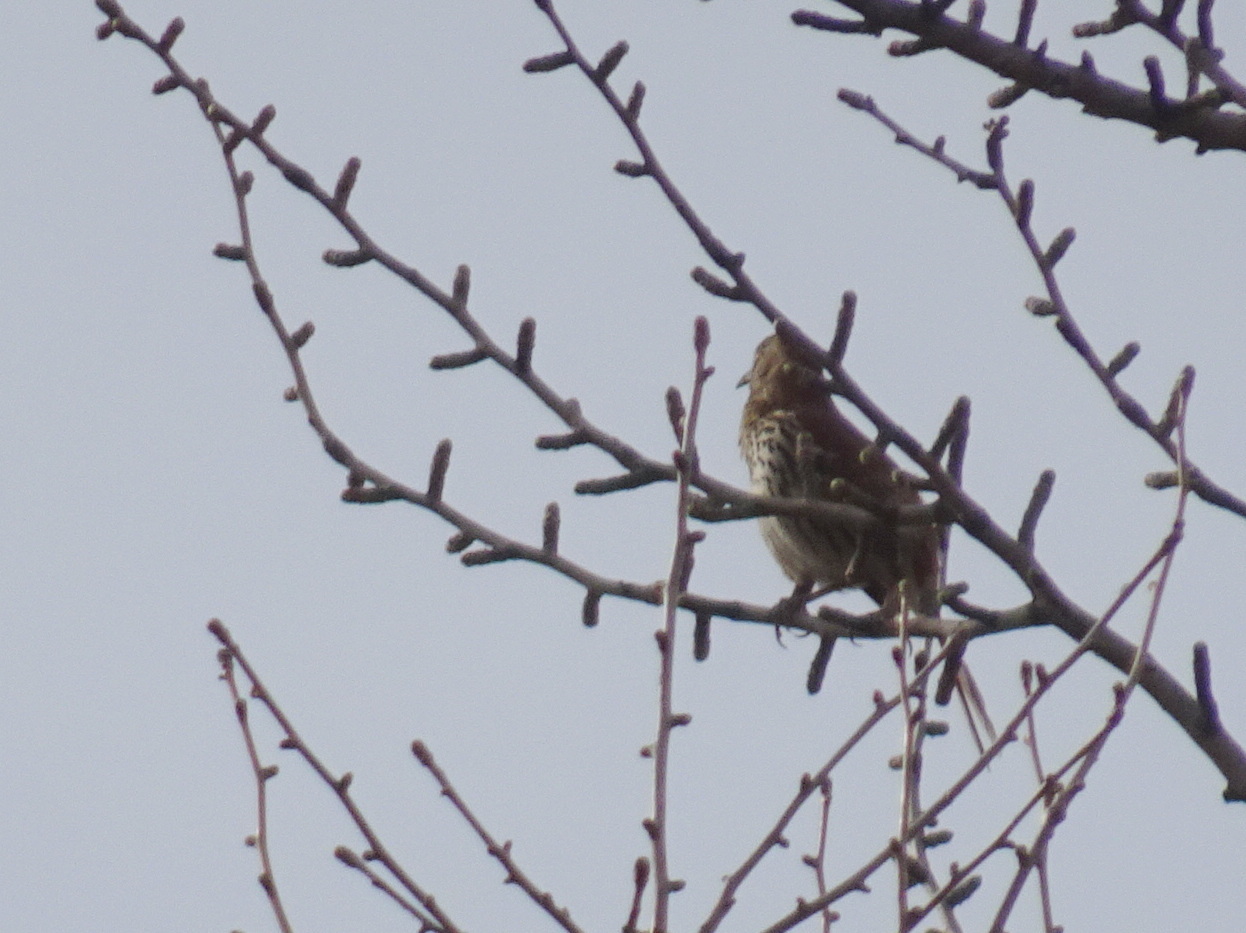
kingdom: Animalia
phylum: Chordata
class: Aves
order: Passeriformes
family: Mimidae
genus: Toxostoma
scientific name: Toxostoma rufum
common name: Brown thrasher
